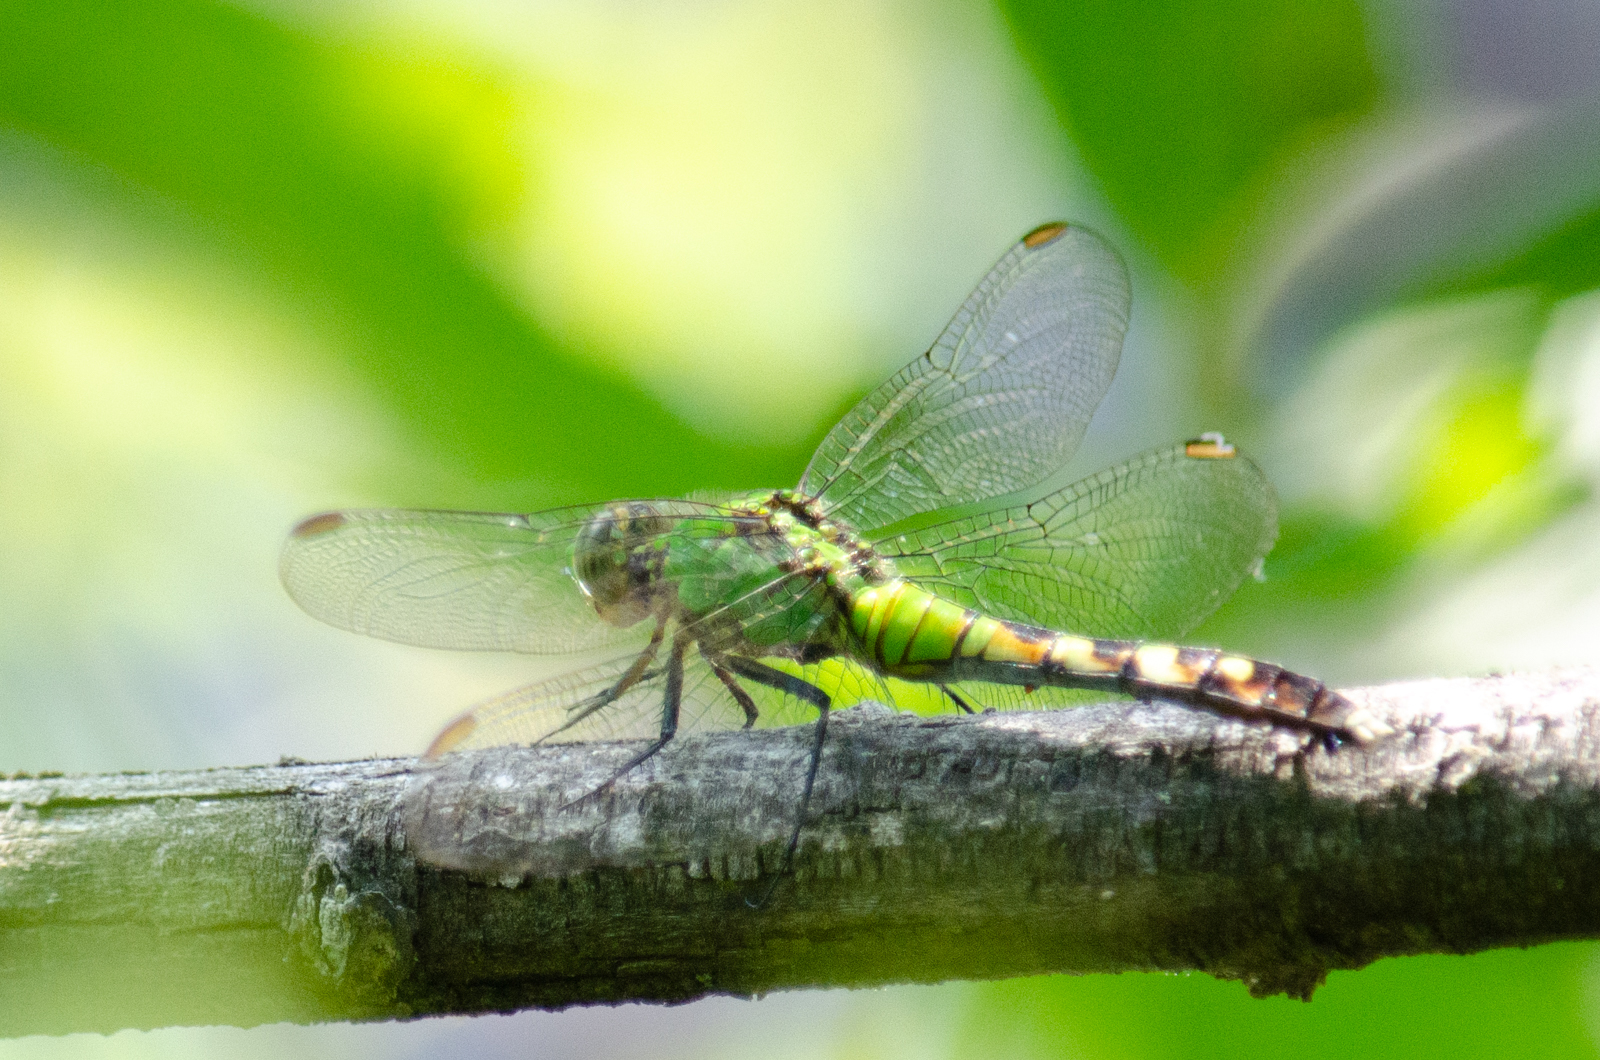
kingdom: Animalia
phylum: Arthropoda
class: Insecta
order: Odonata
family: Libellulidae
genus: Erythemis
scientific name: Erythemis simplicicollis
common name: Eastern pondhawk
